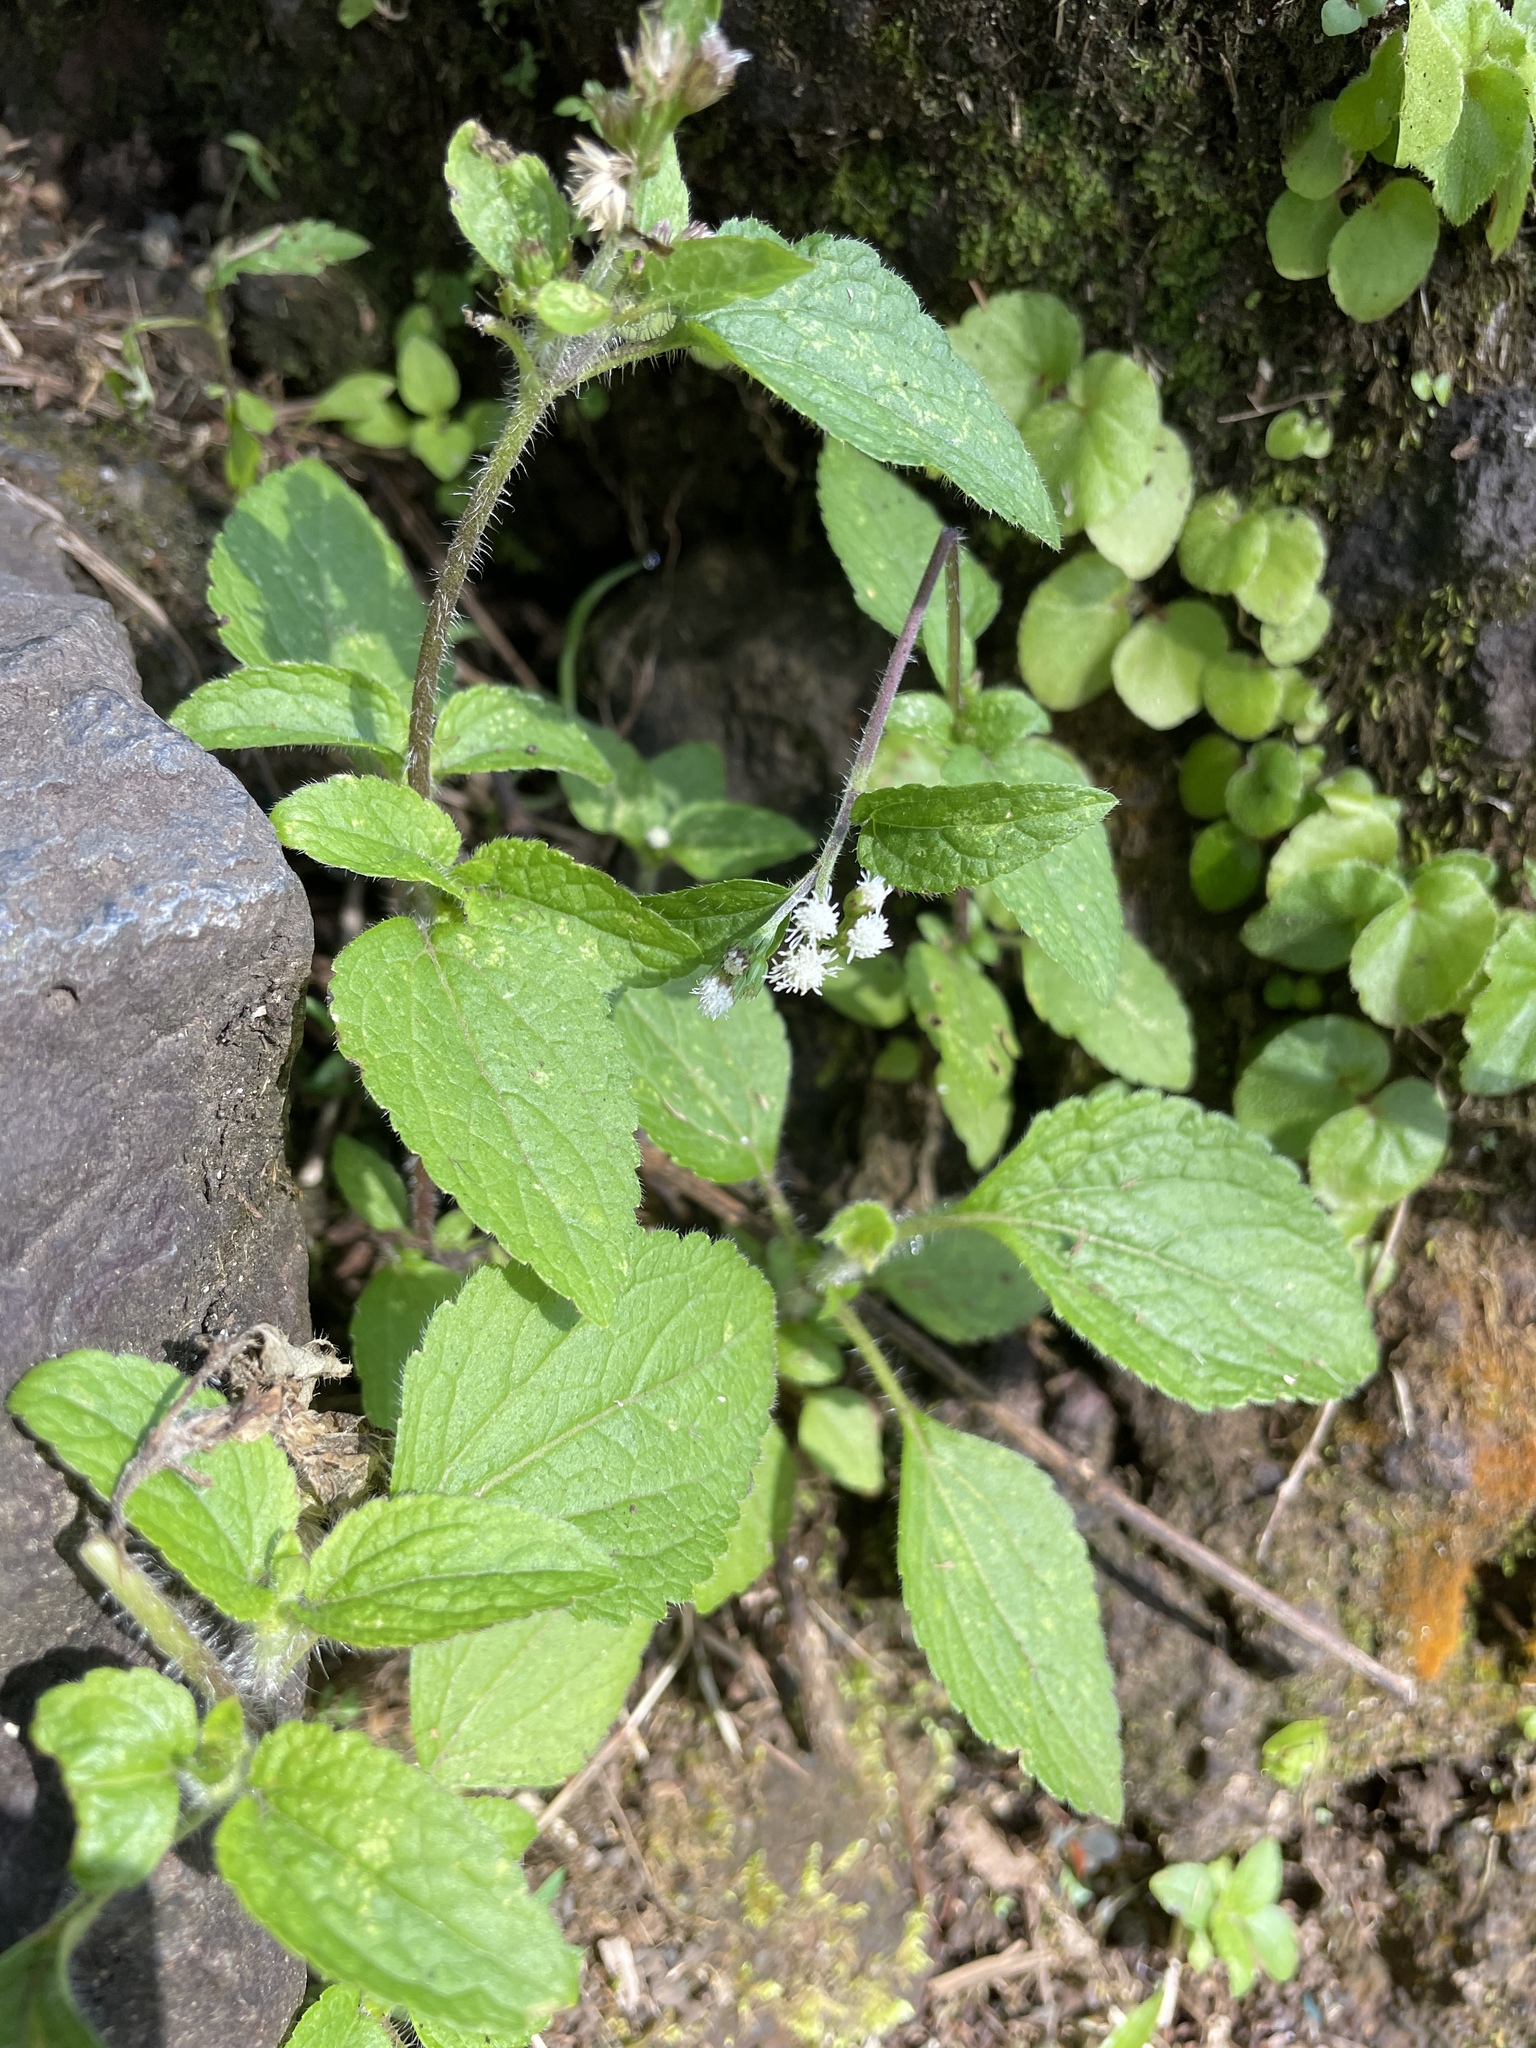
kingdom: Plantae
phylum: Tracheophyta
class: Magnoliopsida
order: Asterales
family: Asteraceae
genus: Ageratum
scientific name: Ageratum conyzoides
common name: Tropical whiteweed
